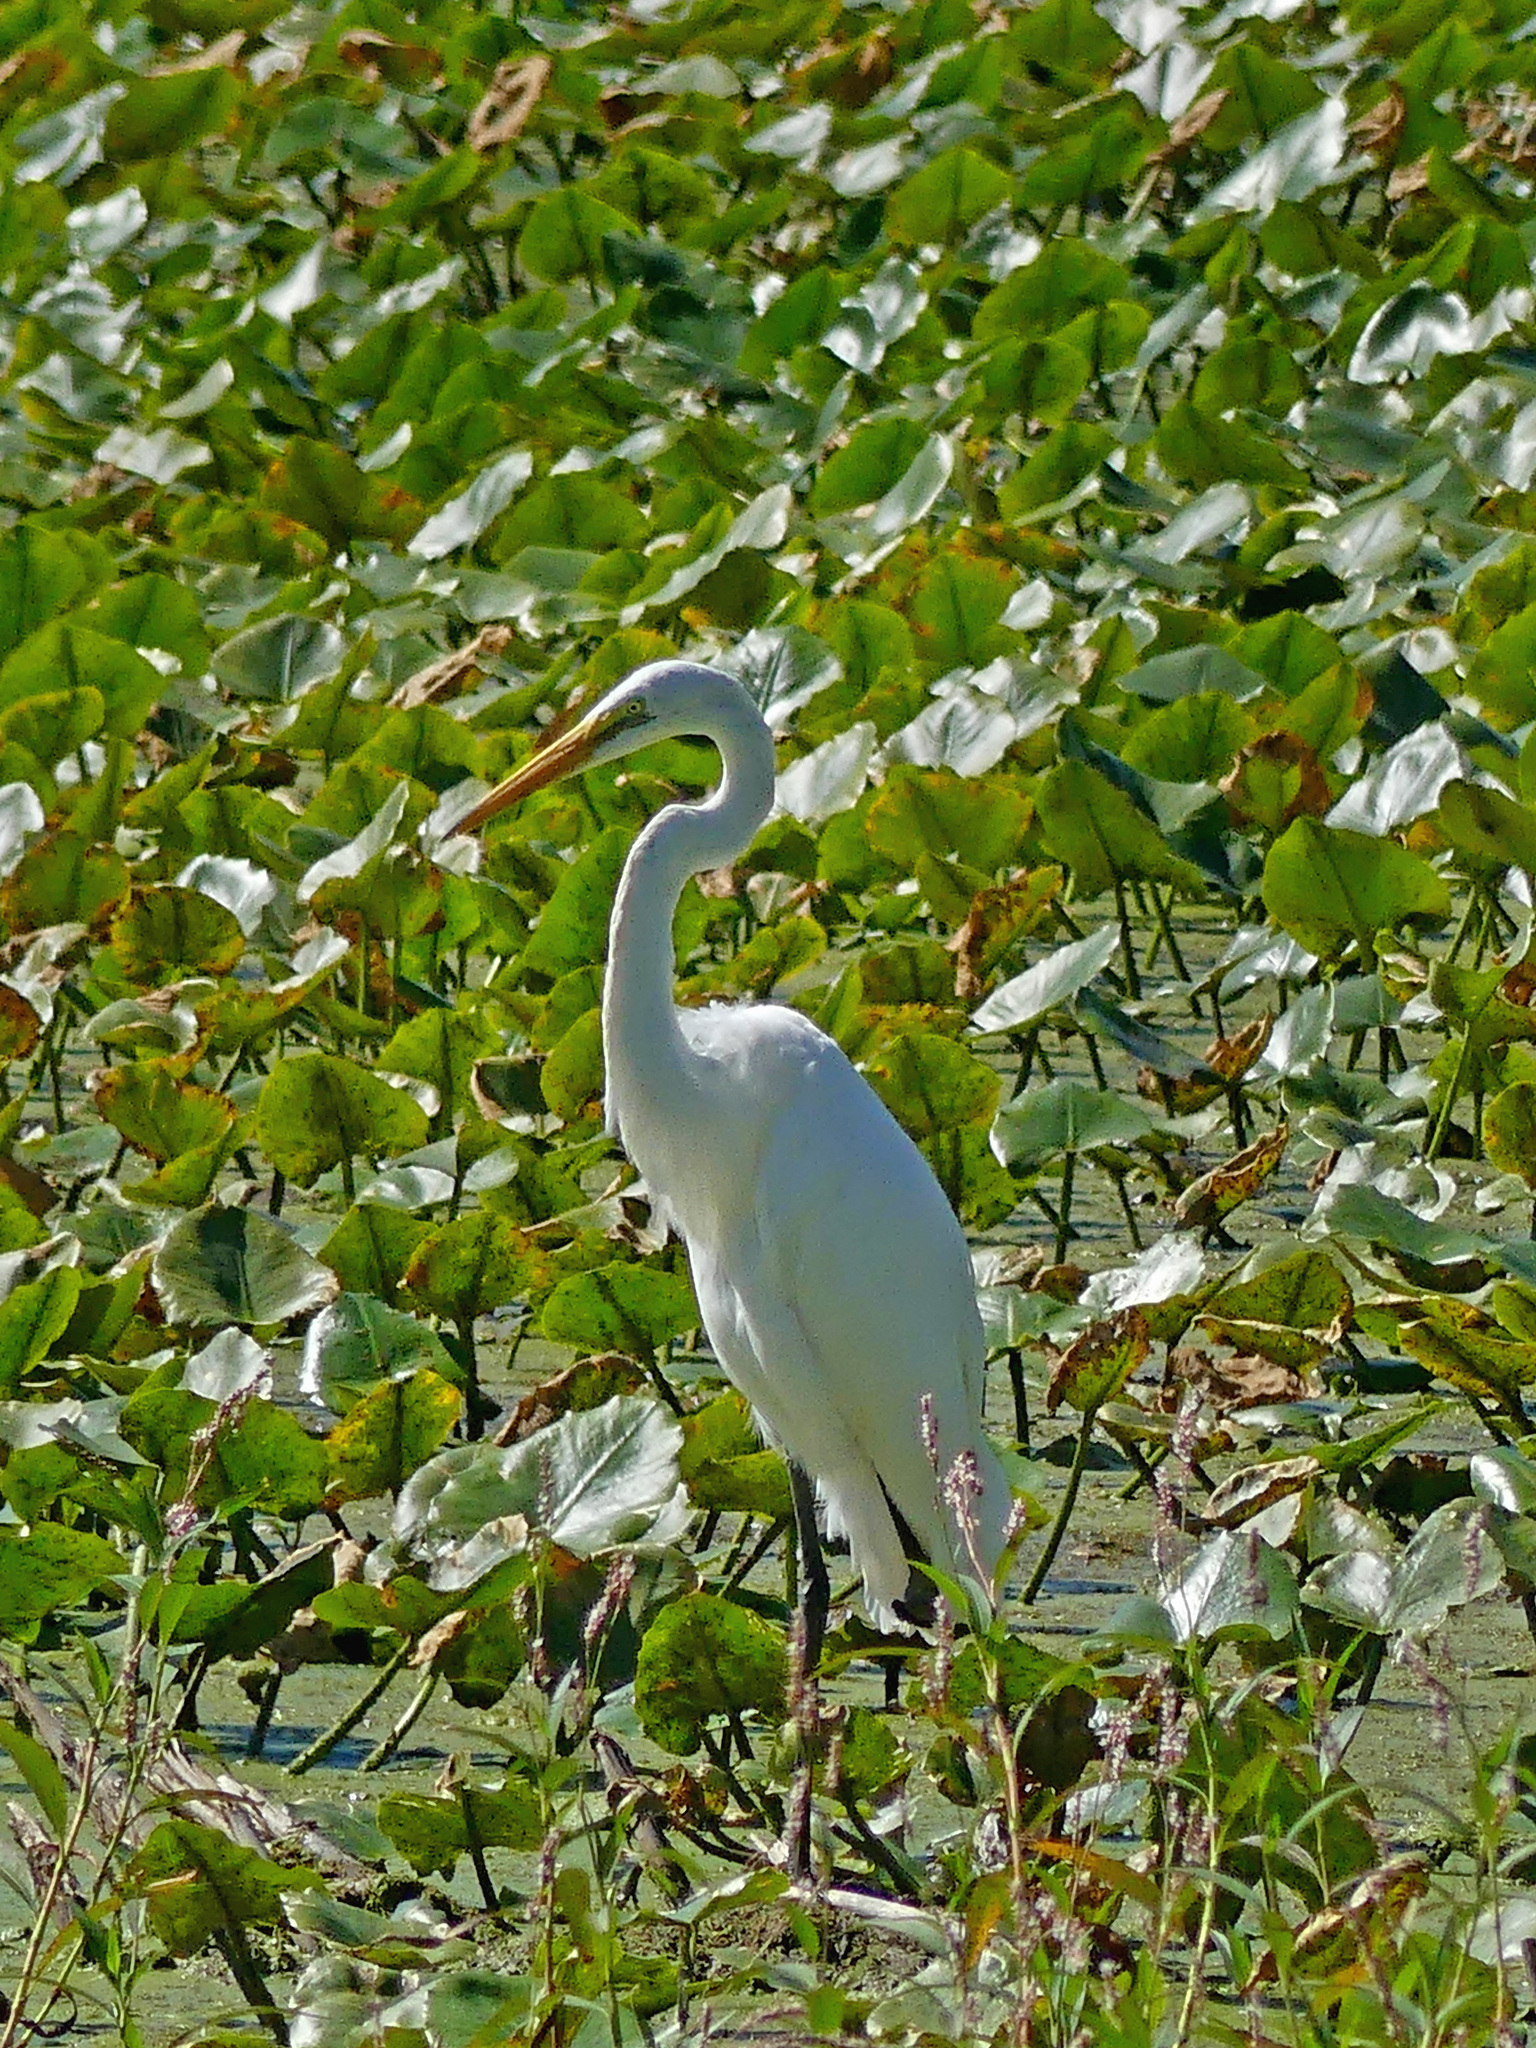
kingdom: Animalia
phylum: Chordata
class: Aves
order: Pelecaniformes
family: Ardeidae
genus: Ardea
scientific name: Ardea alba
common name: Great egret
